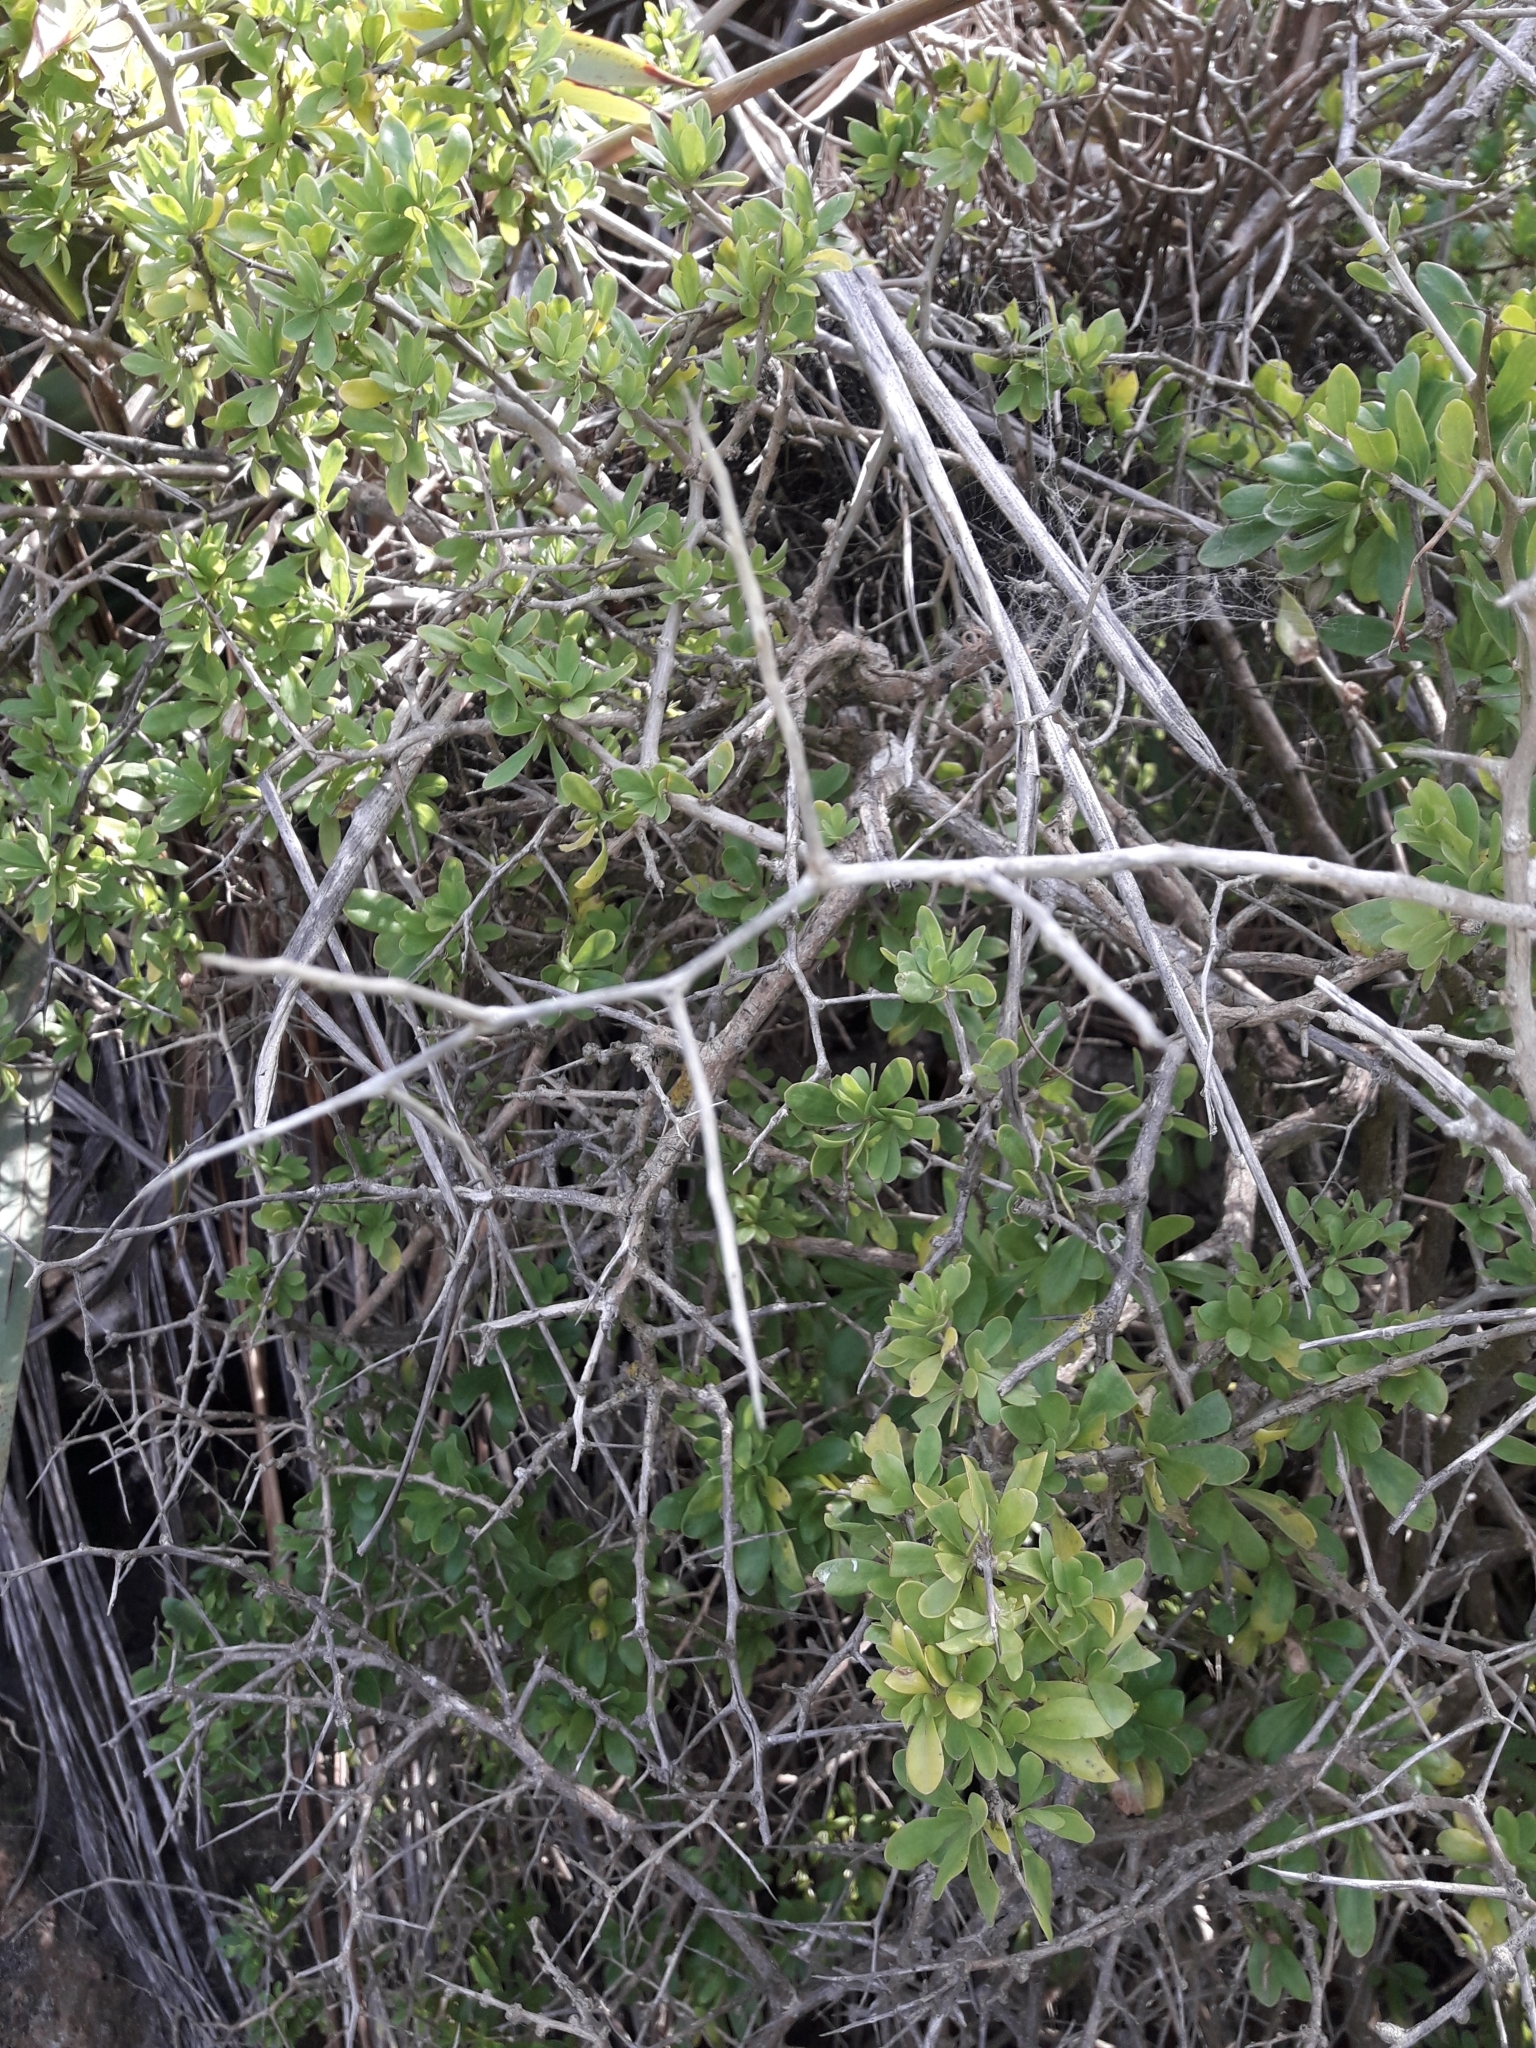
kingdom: Plantae
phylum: Tracheophyta
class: Magnoliopsida
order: Solanales
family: Solanaceae
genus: Lycium
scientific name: Lycium ferocissimum
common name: African boxthorn
